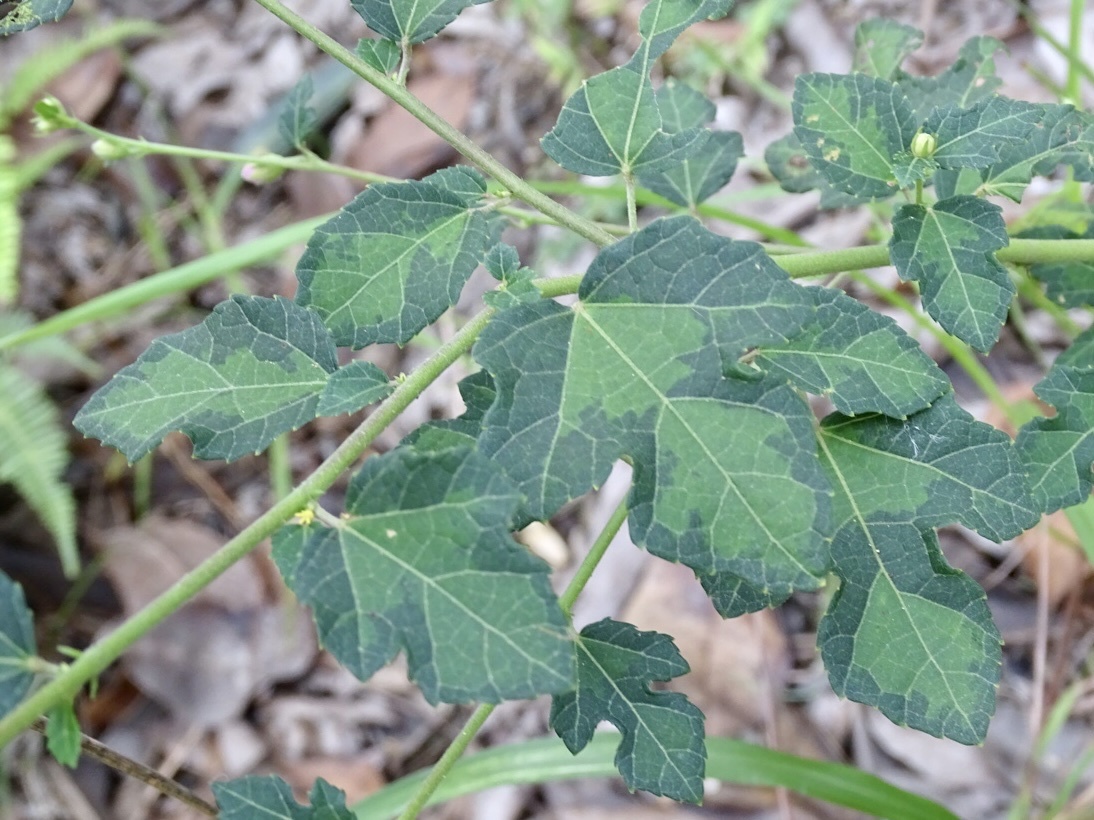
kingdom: Plantae
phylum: Tracheophyta
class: Magnoliopsida
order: Malvales
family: Malvaceae
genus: Urena
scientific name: Urena procumbens
